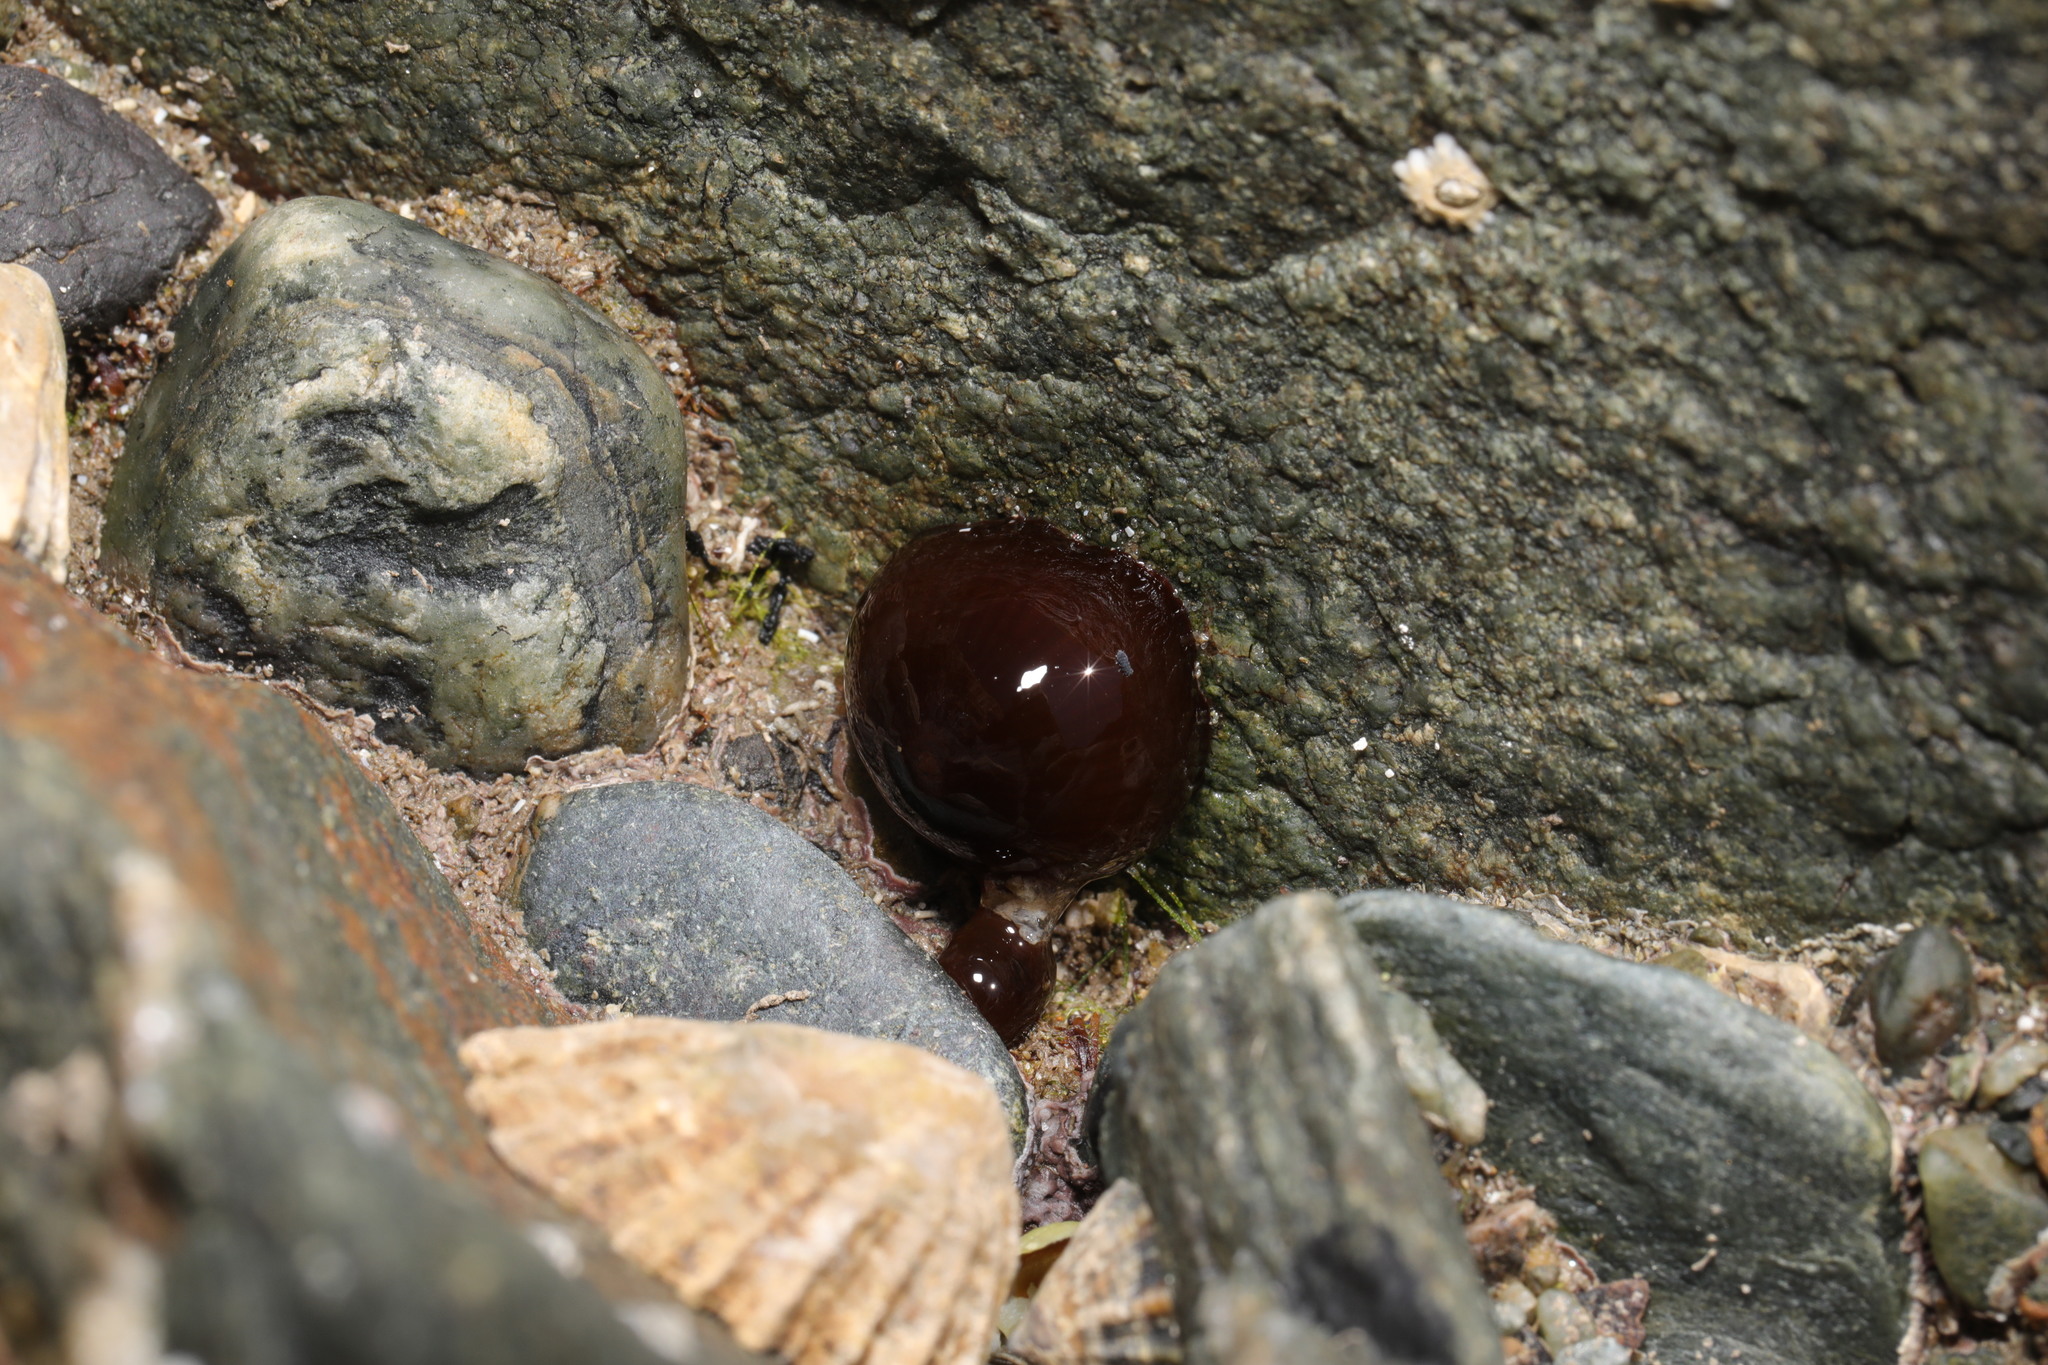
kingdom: Animalia
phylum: Cnidaria
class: Anthozoa
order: Actiniaria
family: Actiniidae
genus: Actinia
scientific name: Actinia equina
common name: Beadlet anemone
